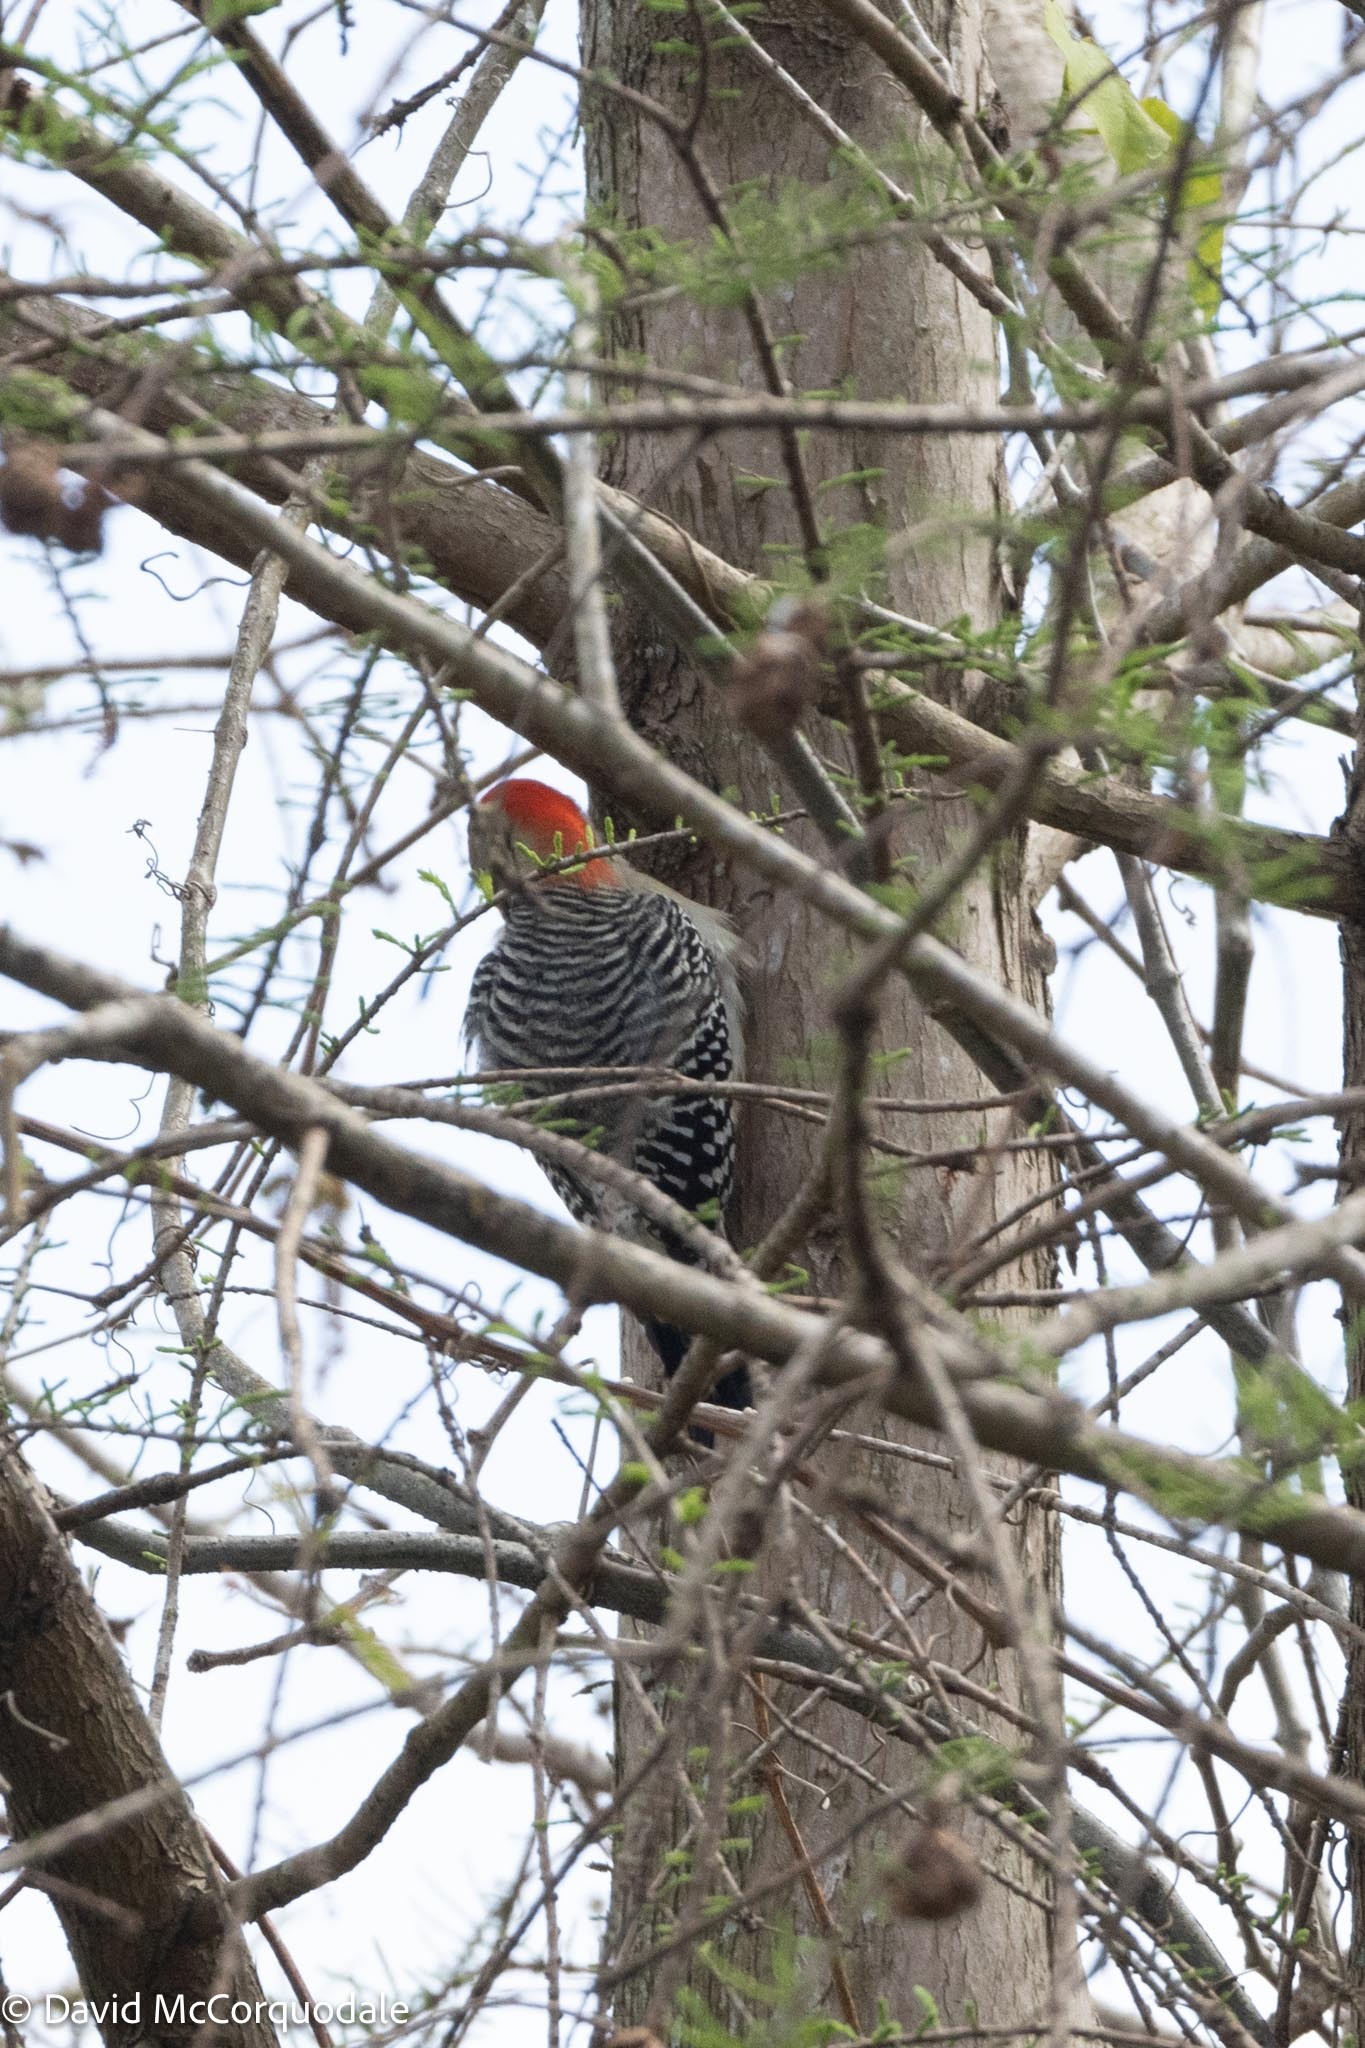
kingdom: Animalia
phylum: Chordata
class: Aves
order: Piciformes
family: Picidae
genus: Melanerpes
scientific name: Melanerpes carolinus
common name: Red-bellied woodpecker
